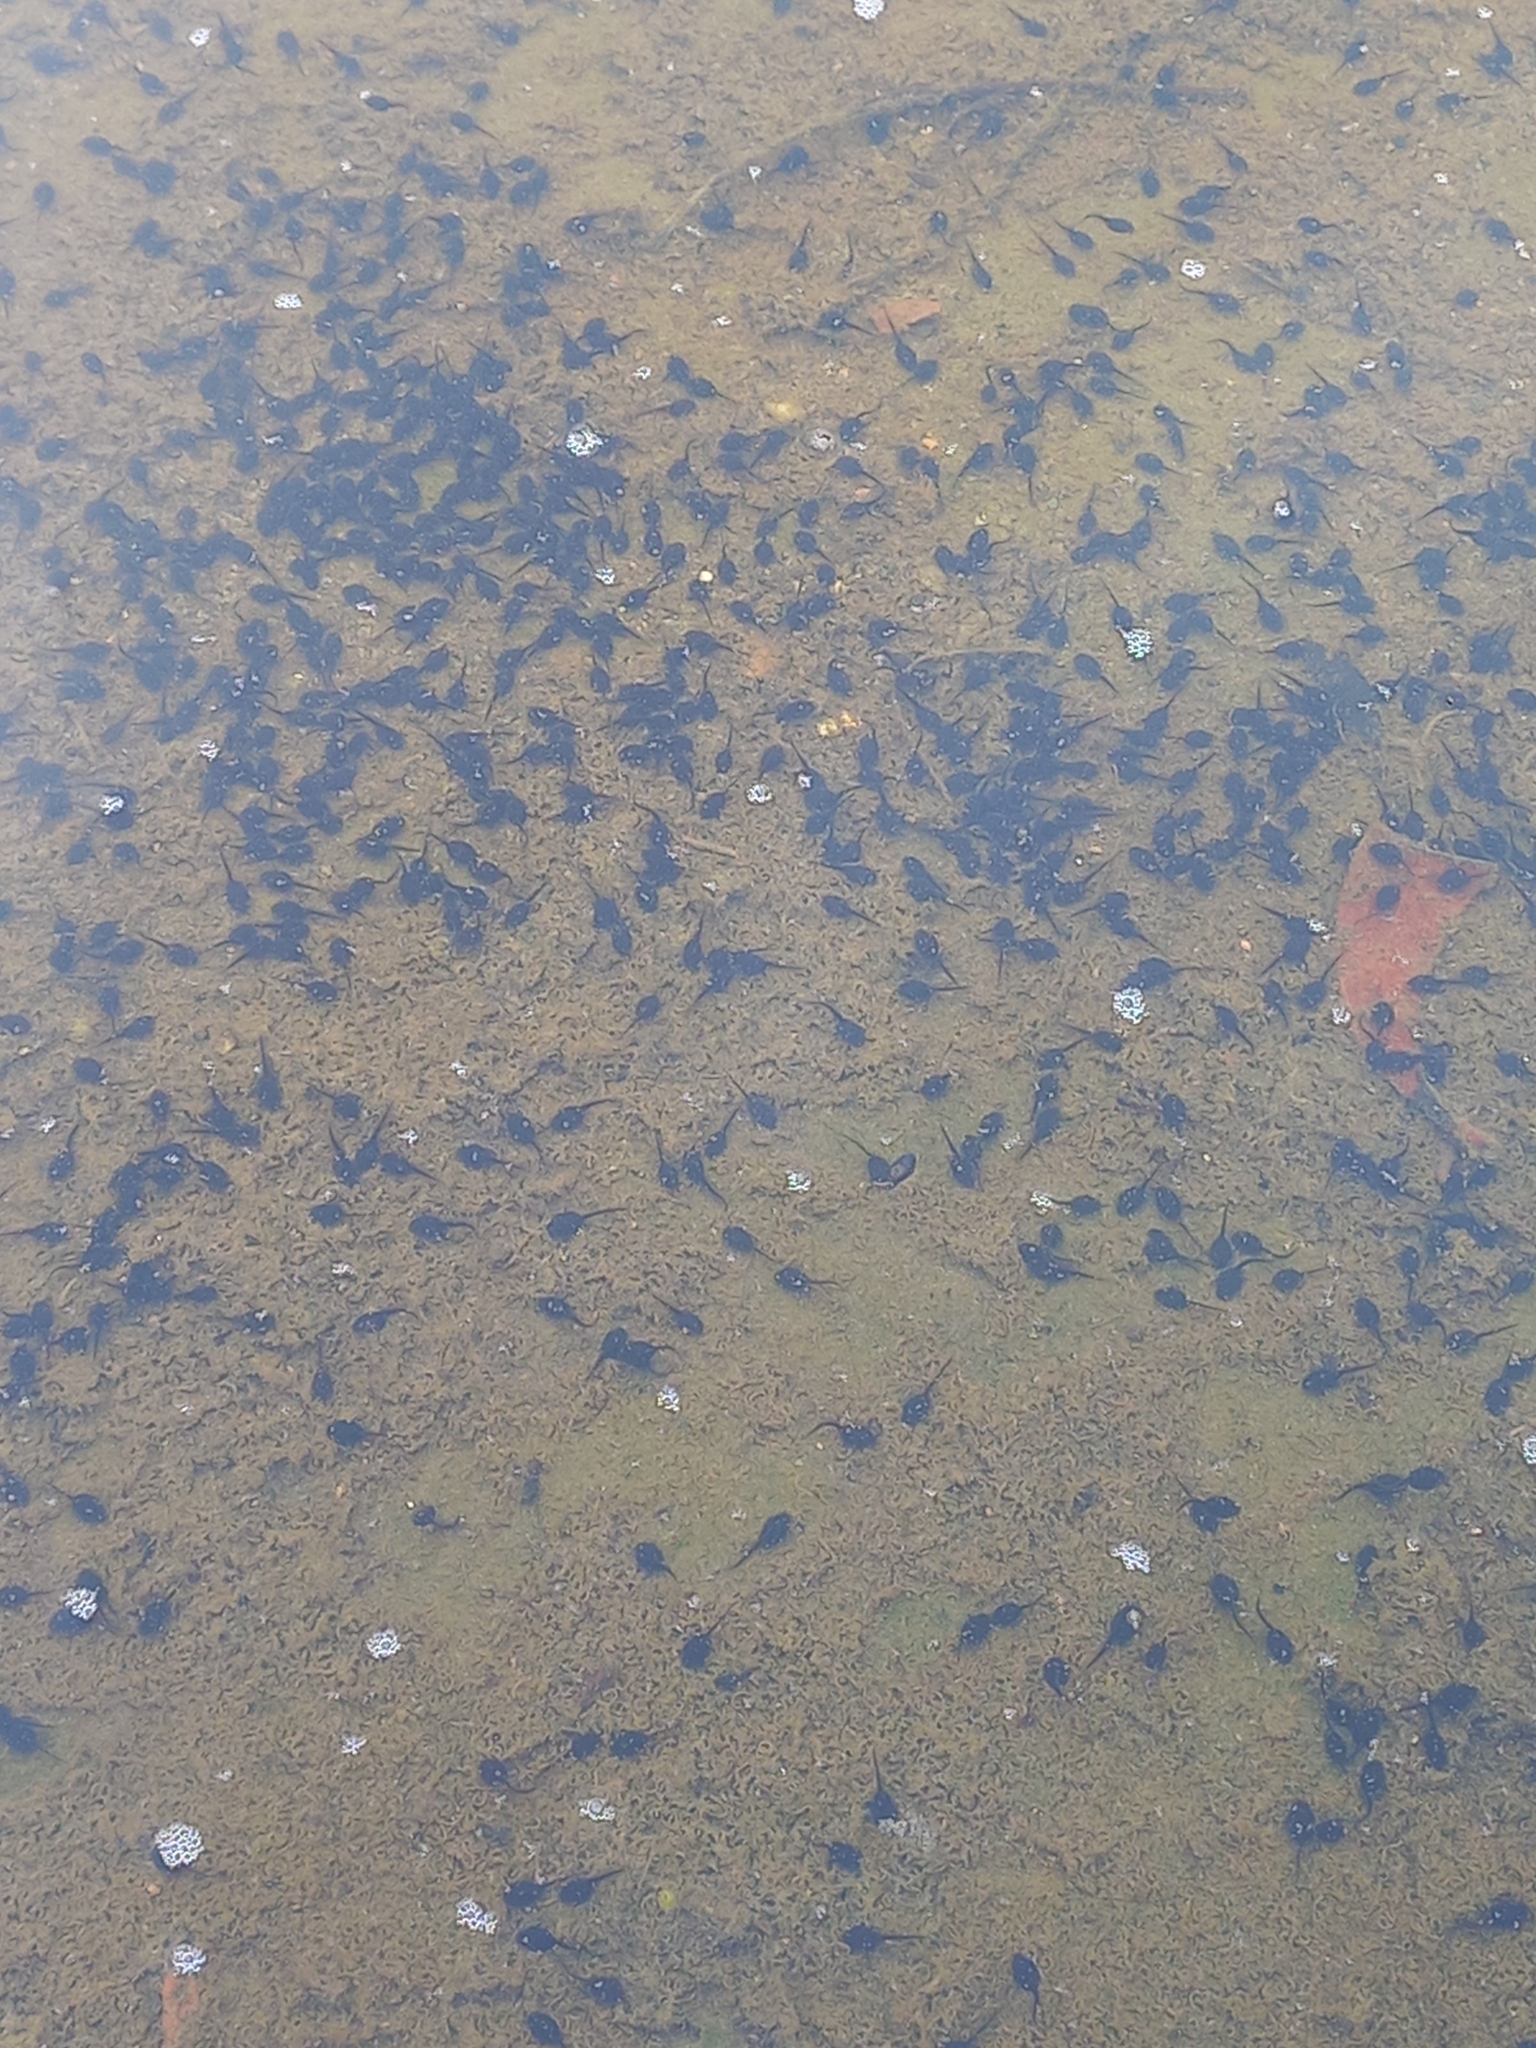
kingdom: Animalia
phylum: Chordata
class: Amphibia
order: Anura
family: Bufonidae
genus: Rhinella
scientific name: Rhinella marina
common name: Cane toad
